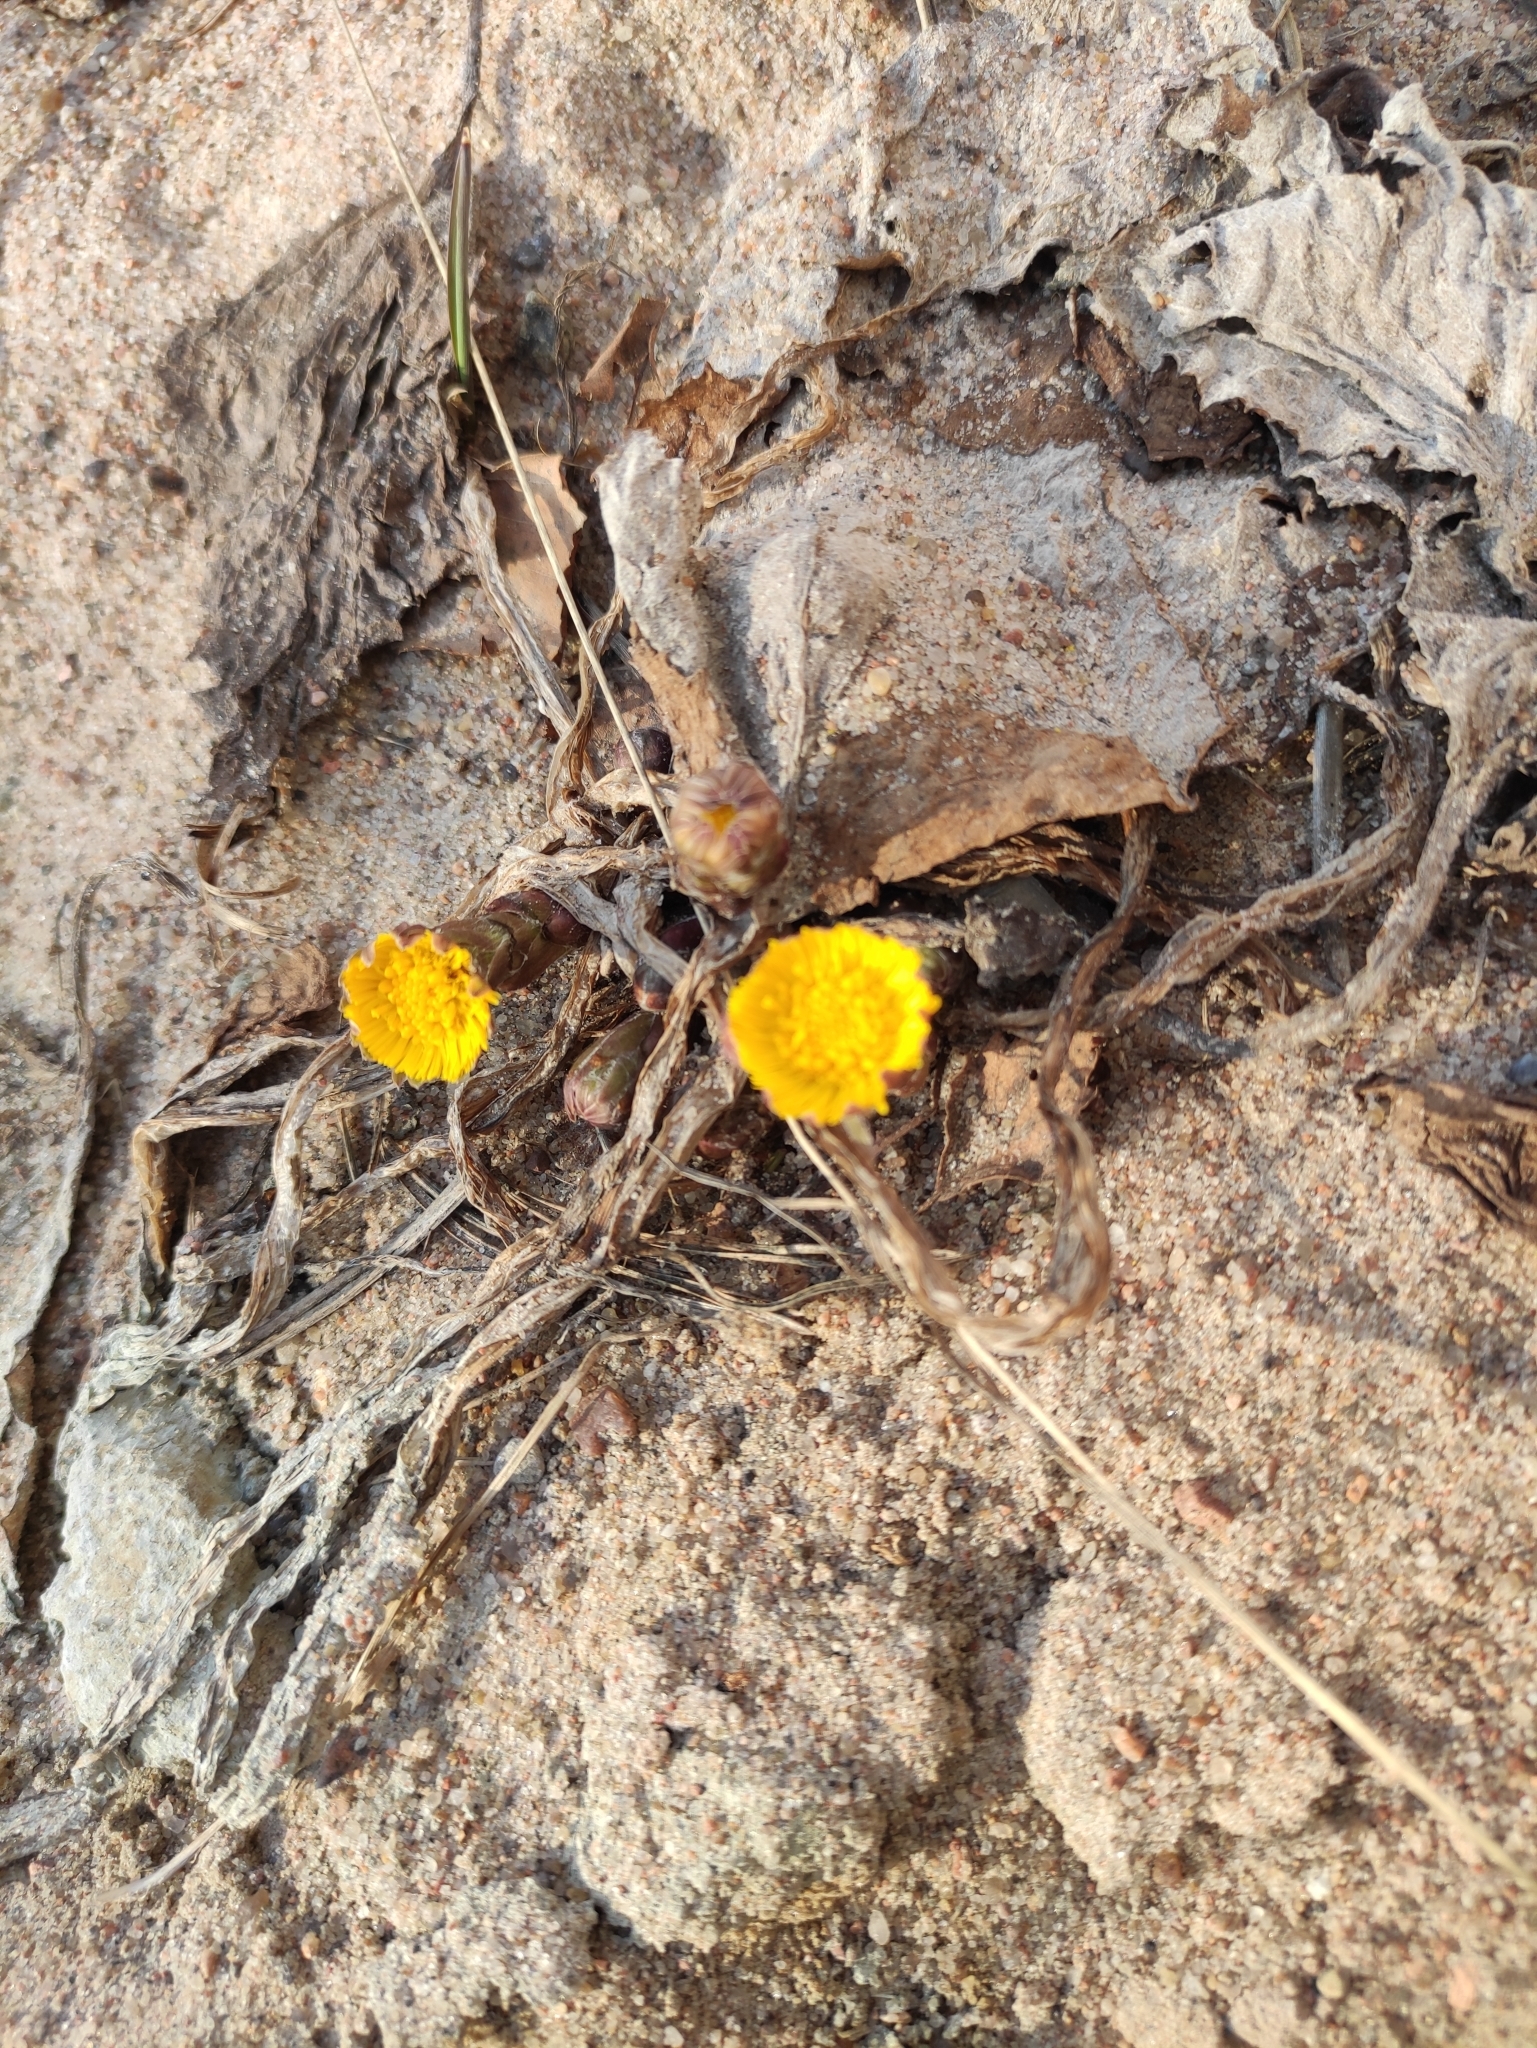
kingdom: Plantae
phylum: Tracheophyta
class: Magnoliopsida
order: Asterales
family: Asteraceae
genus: Tussilago
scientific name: Tussilago farfara
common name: Coltsfoot
